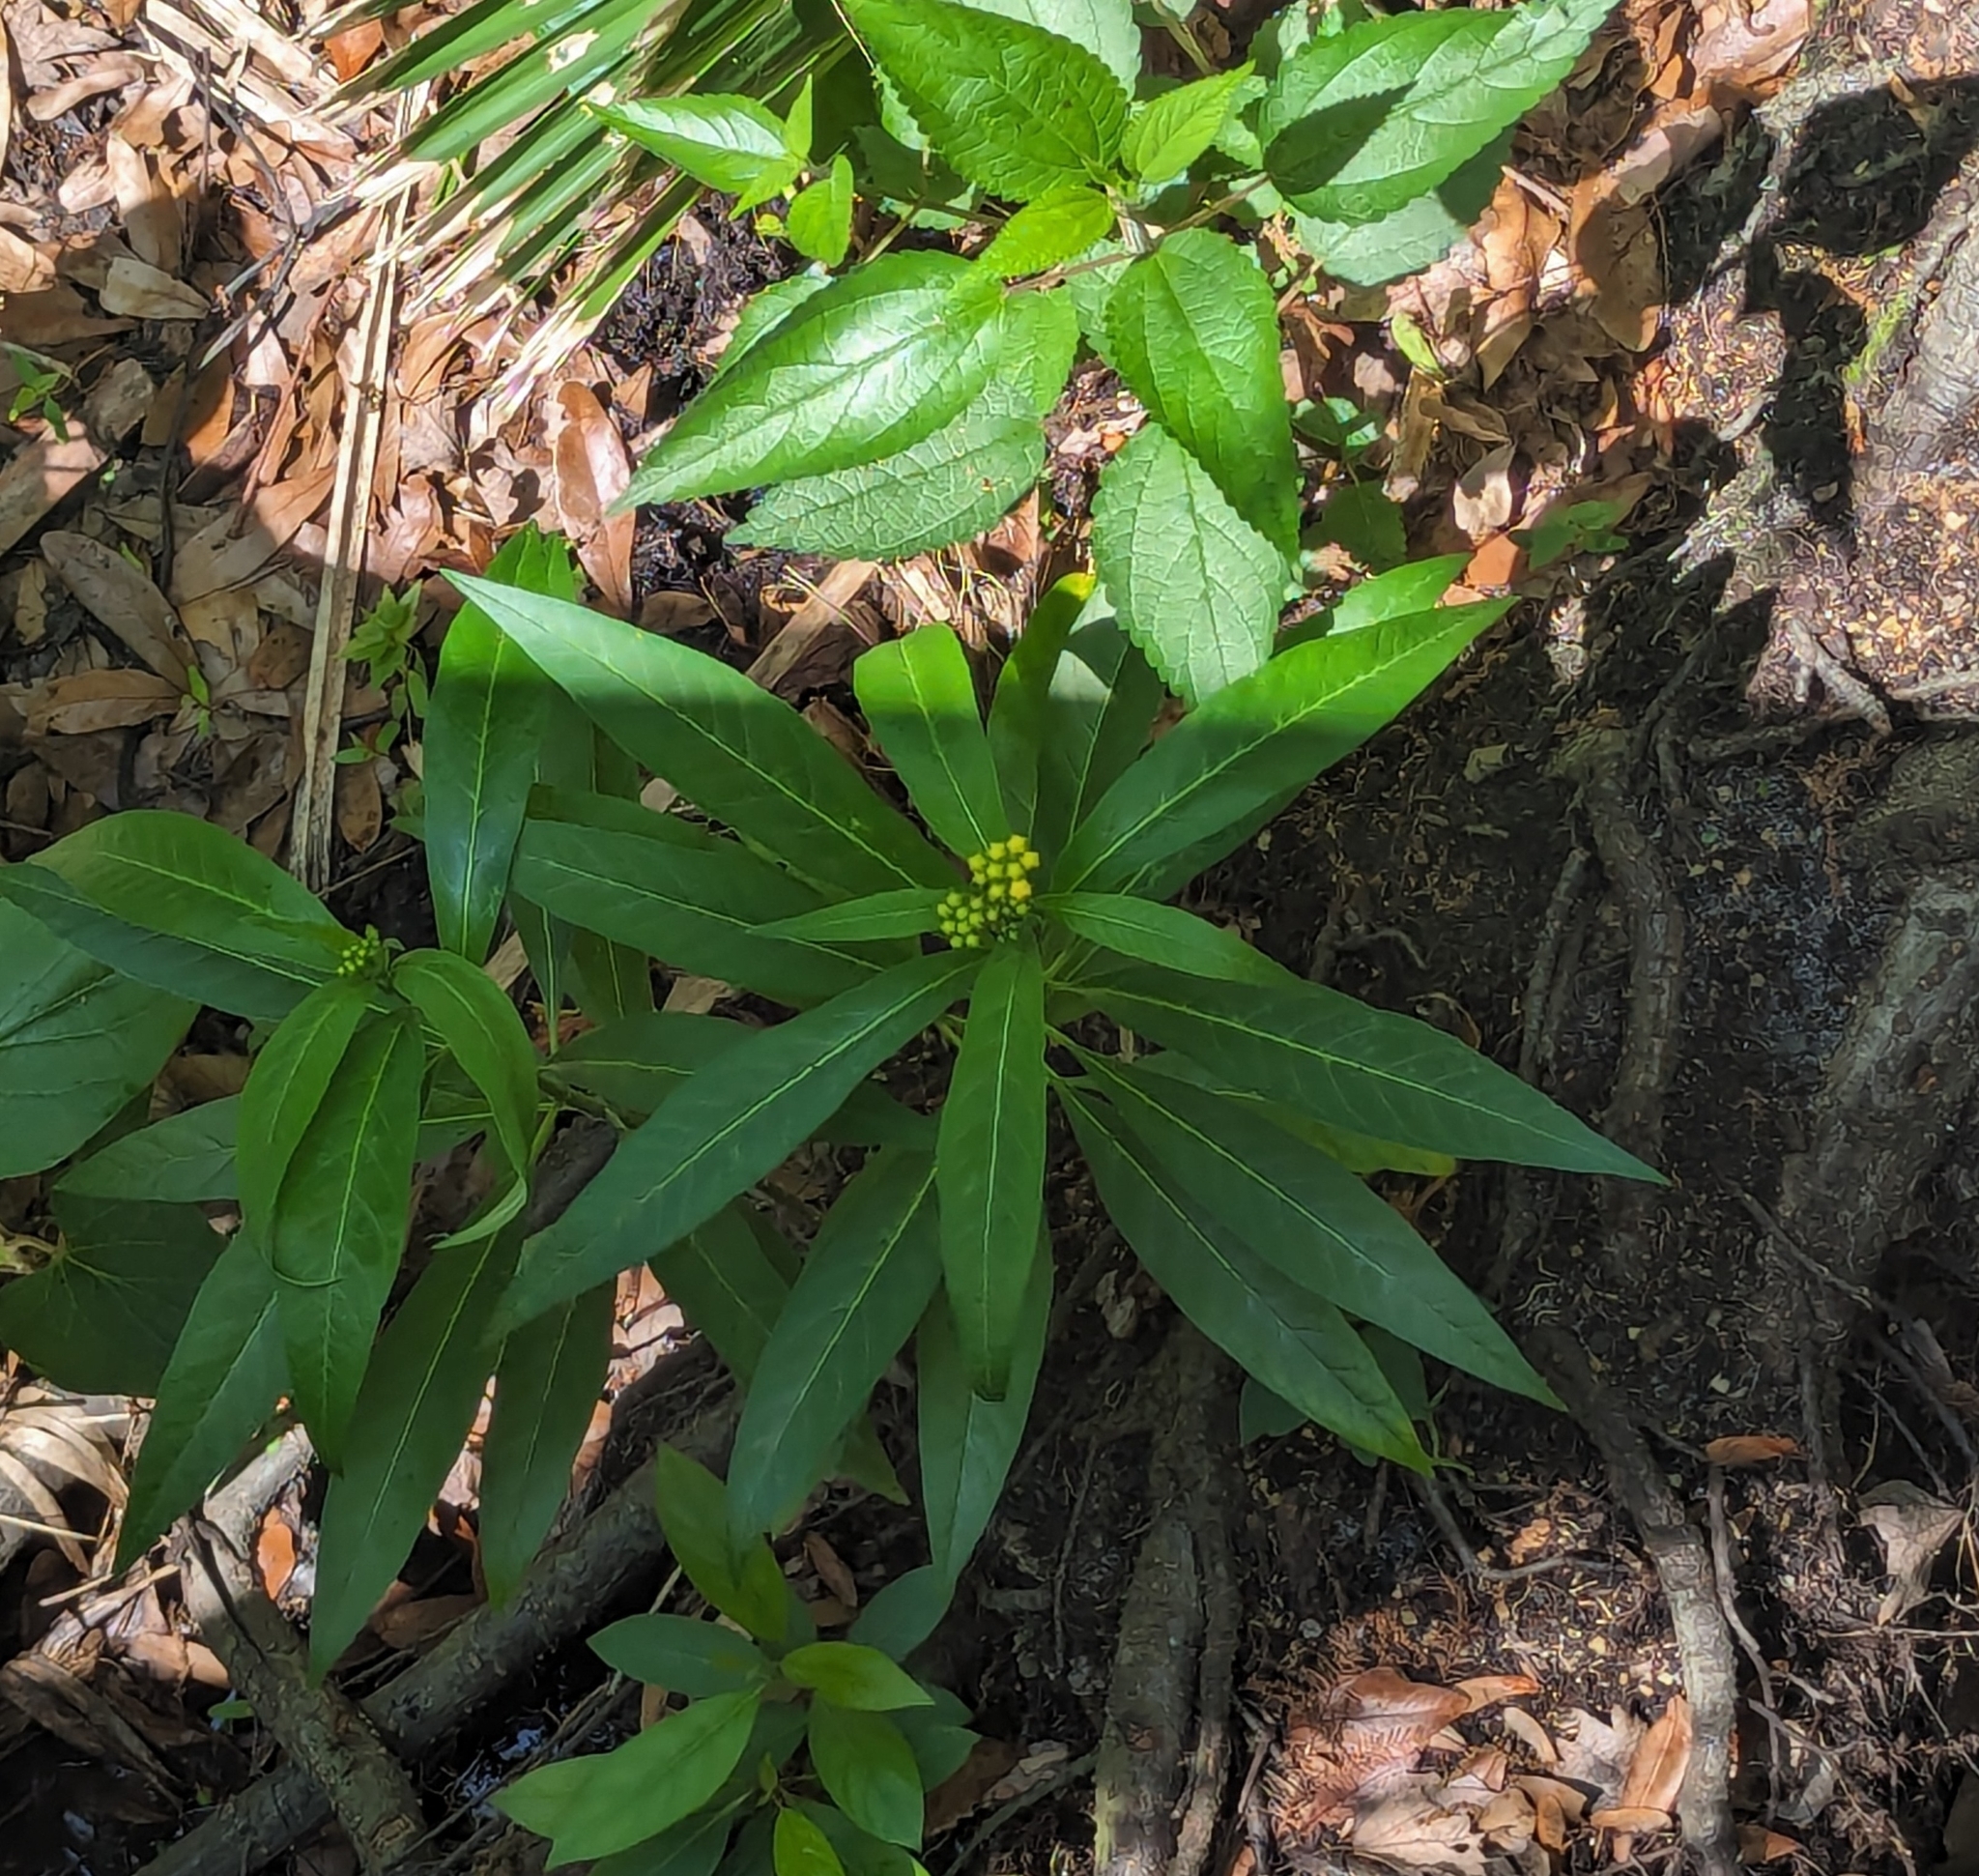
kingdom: Plantae
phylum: Tracheophyta
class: Magnoliopsida
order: Gentianales
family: Apocynaceae
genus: Asclepias
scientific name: Asclepias curassavica
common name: Bloodflower
